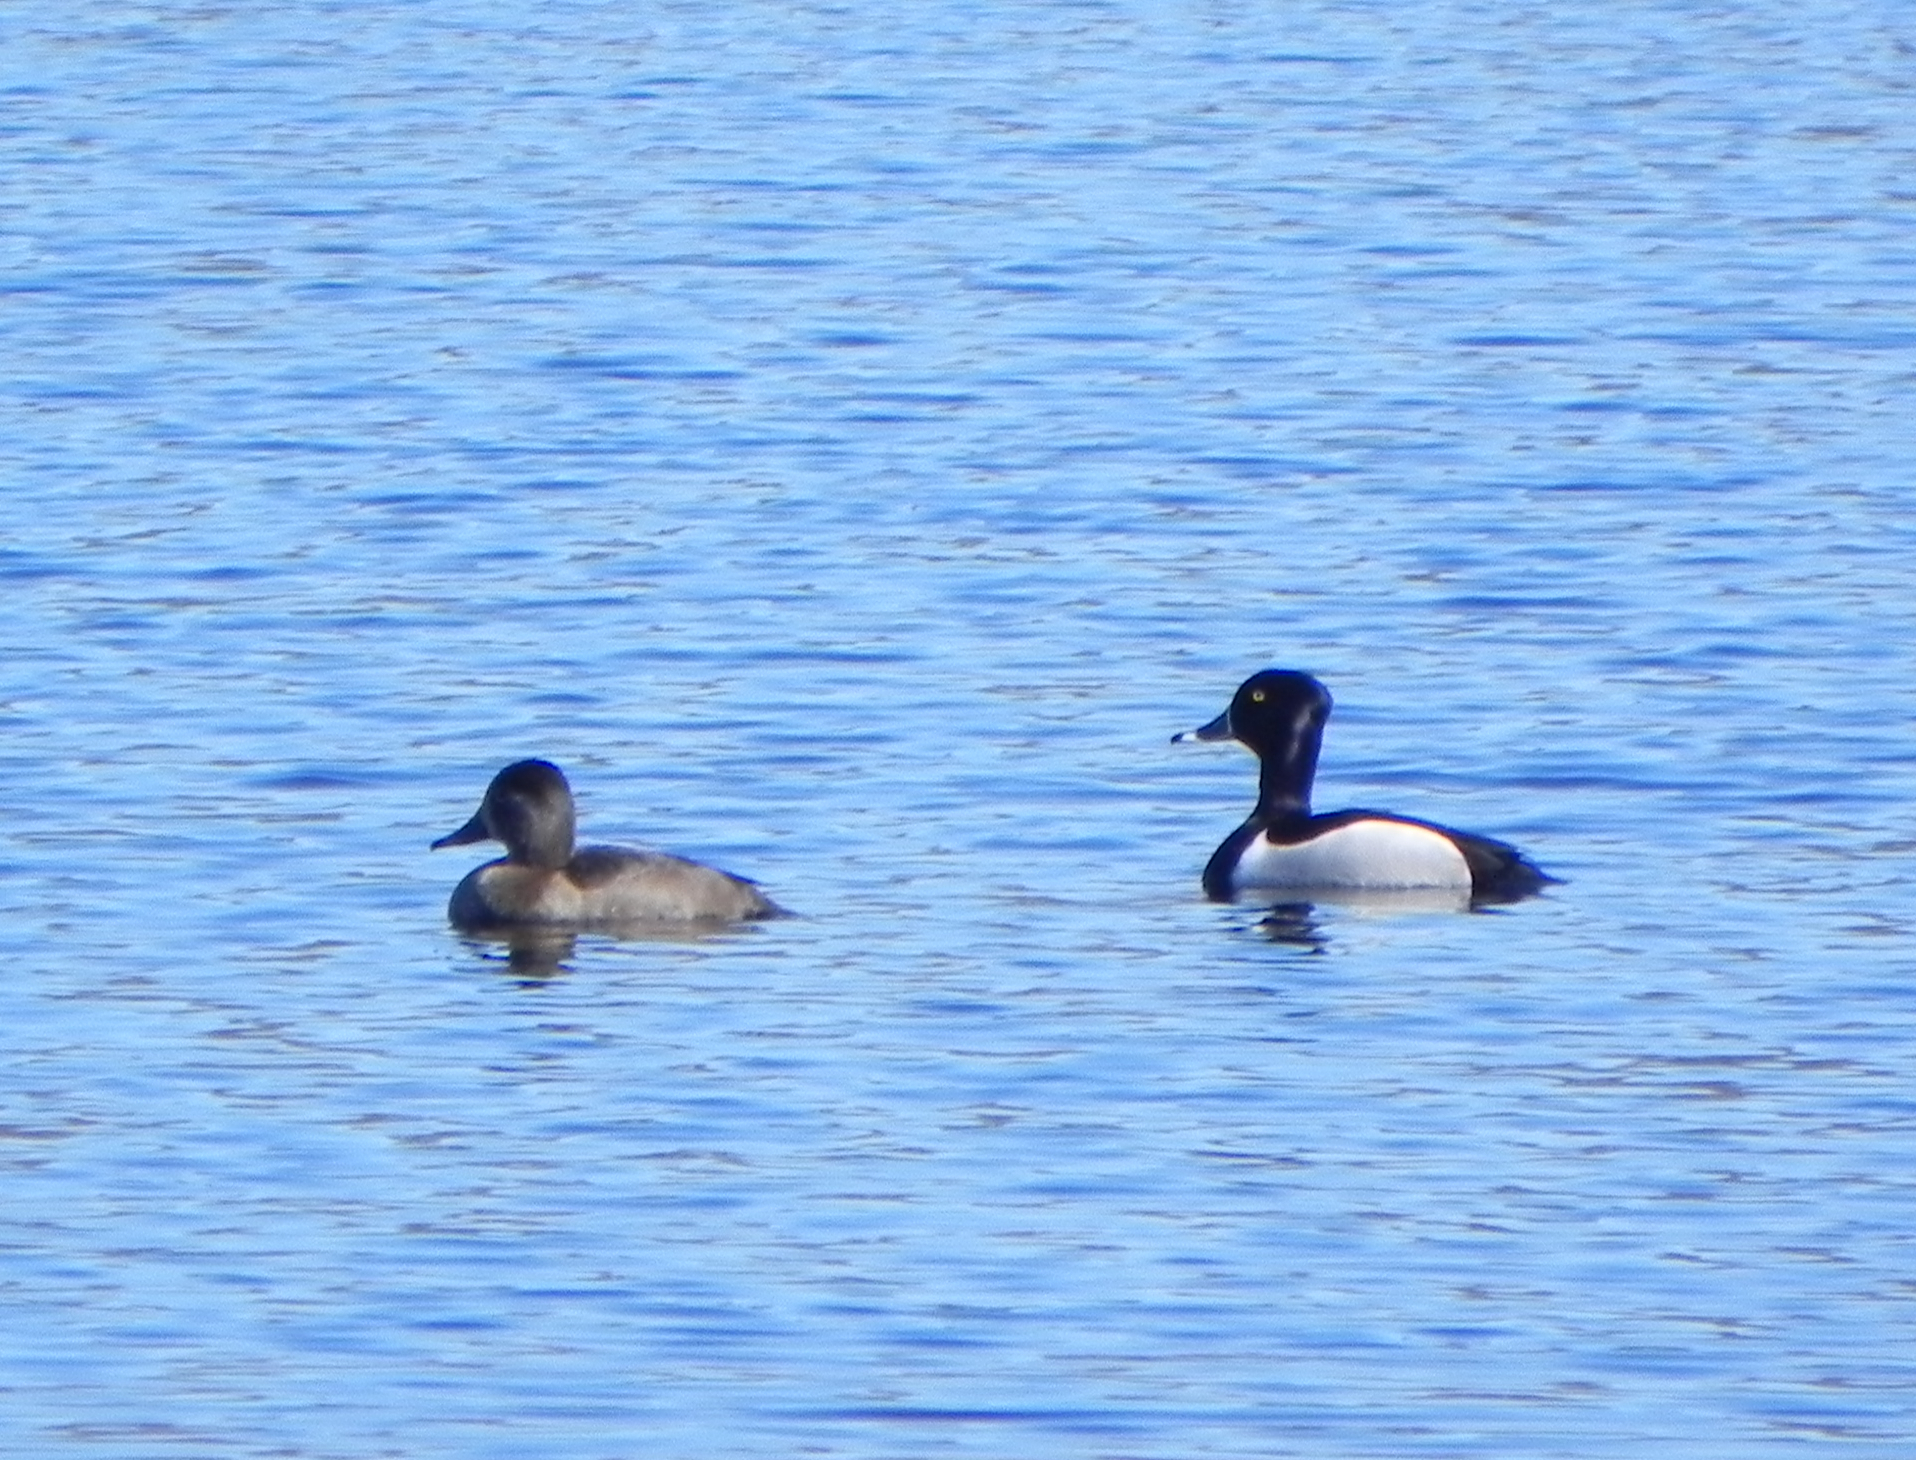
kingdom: Animalia
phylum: Chordata
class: Aves
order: Anseriformes
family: Anatidae
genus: Aythya
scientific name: Aythya collaris
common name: Ring-necked duck
